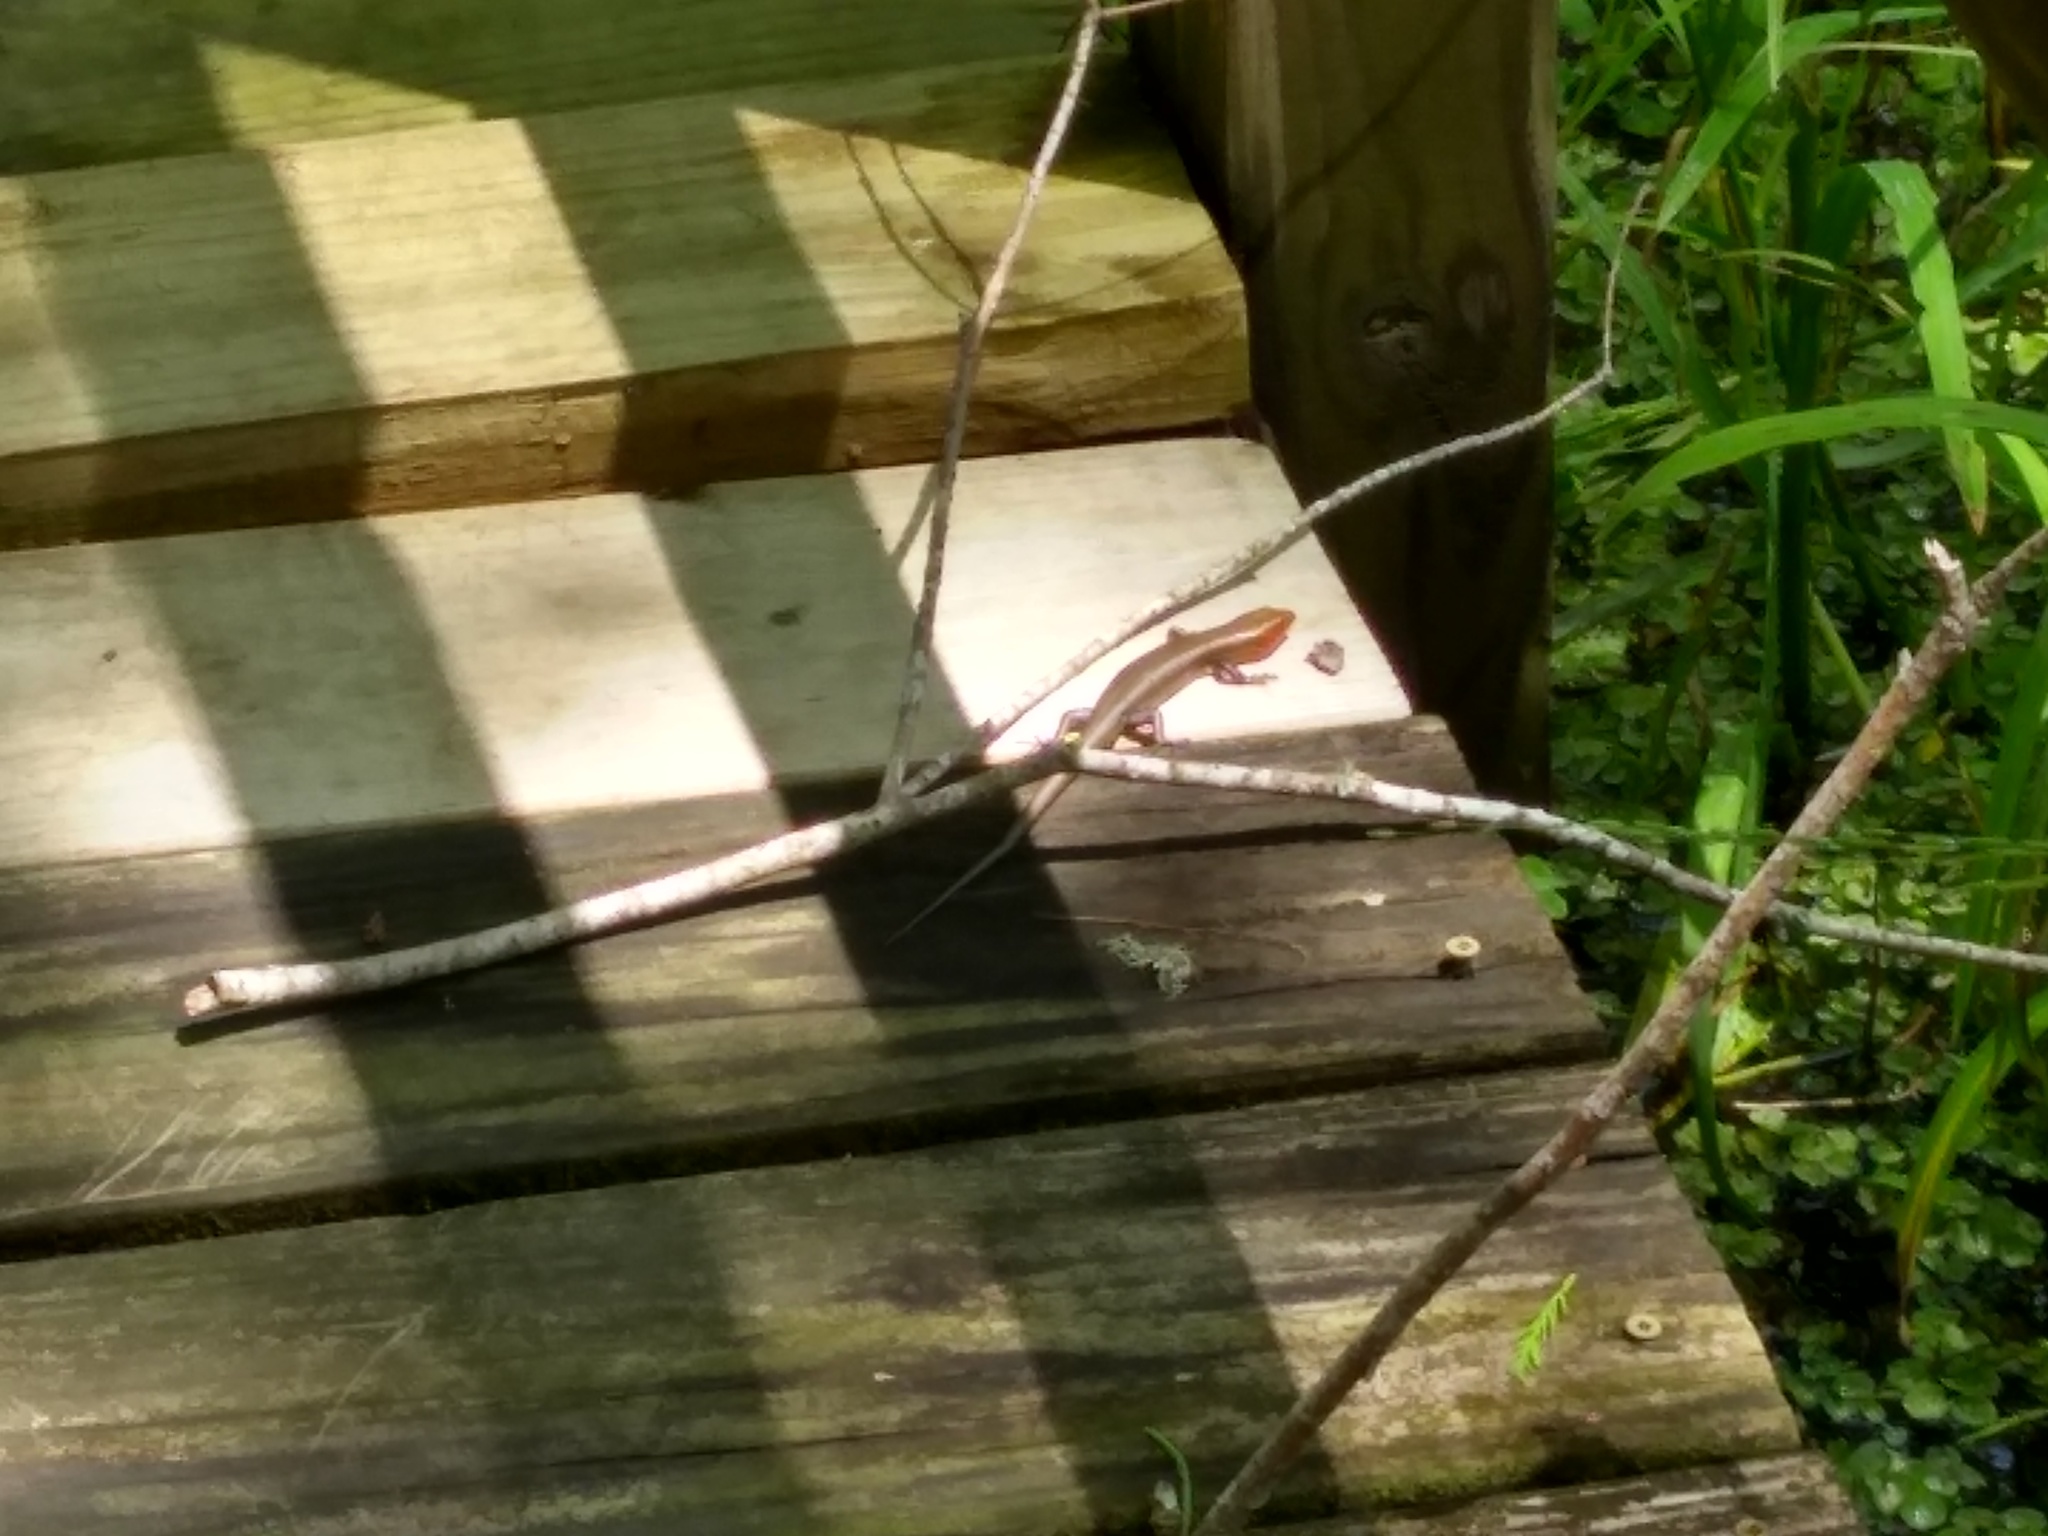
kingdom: Animalia
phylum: Chordata
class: Squamata
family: Scincidae
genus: Plestiodon
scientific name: Plestiodon fasciatus
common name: Five-lined skink
